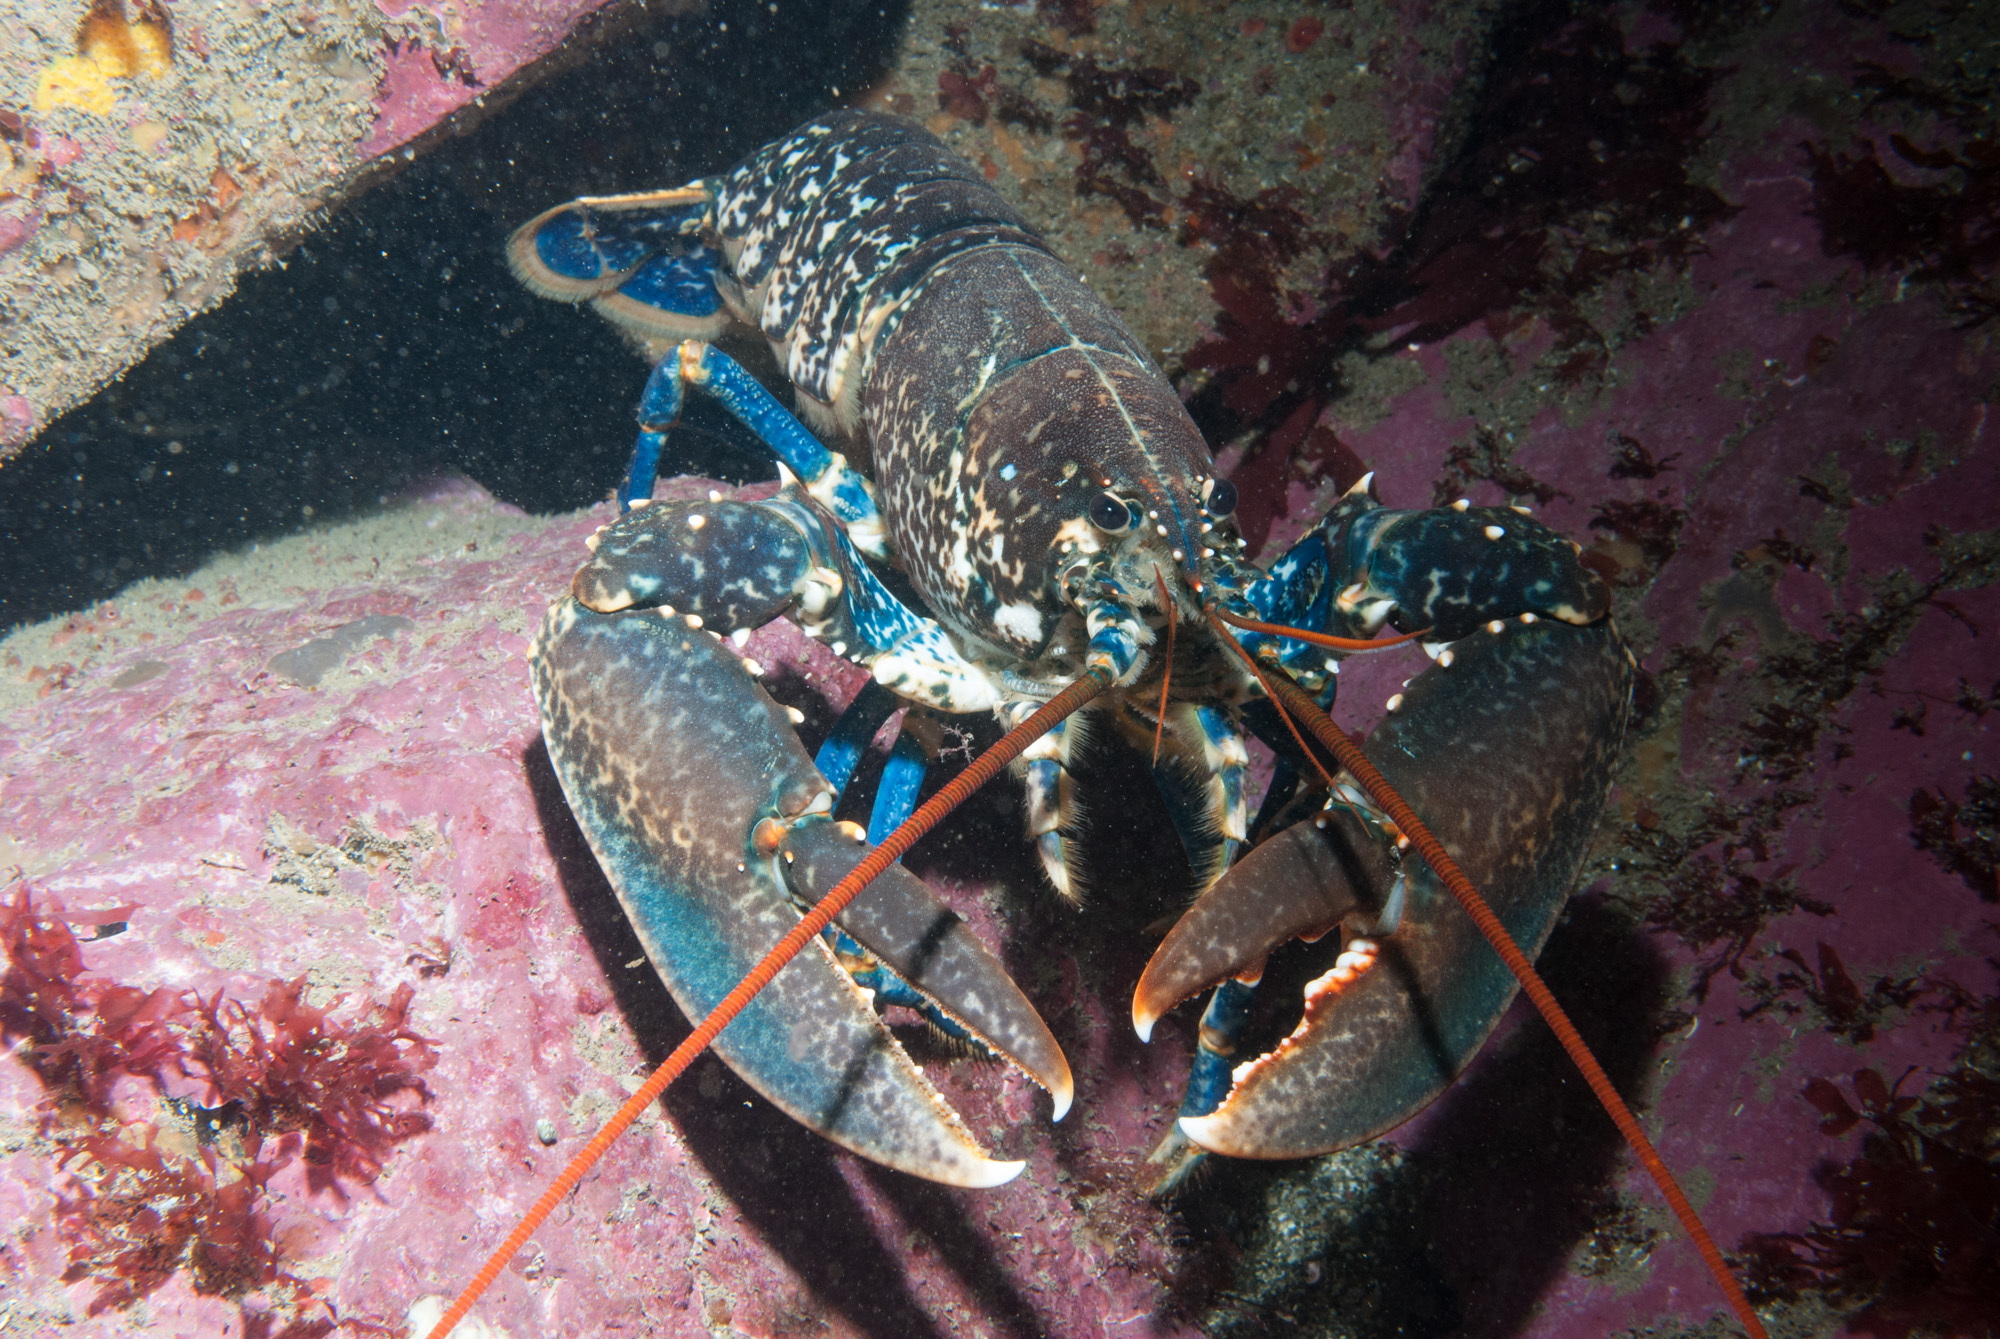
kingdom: Animalia
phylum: Arthropoda
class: Malacostraca
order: Decapoda
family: Nephropidae
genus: Homarus
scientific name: Homarus gammarus
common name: European lobster
